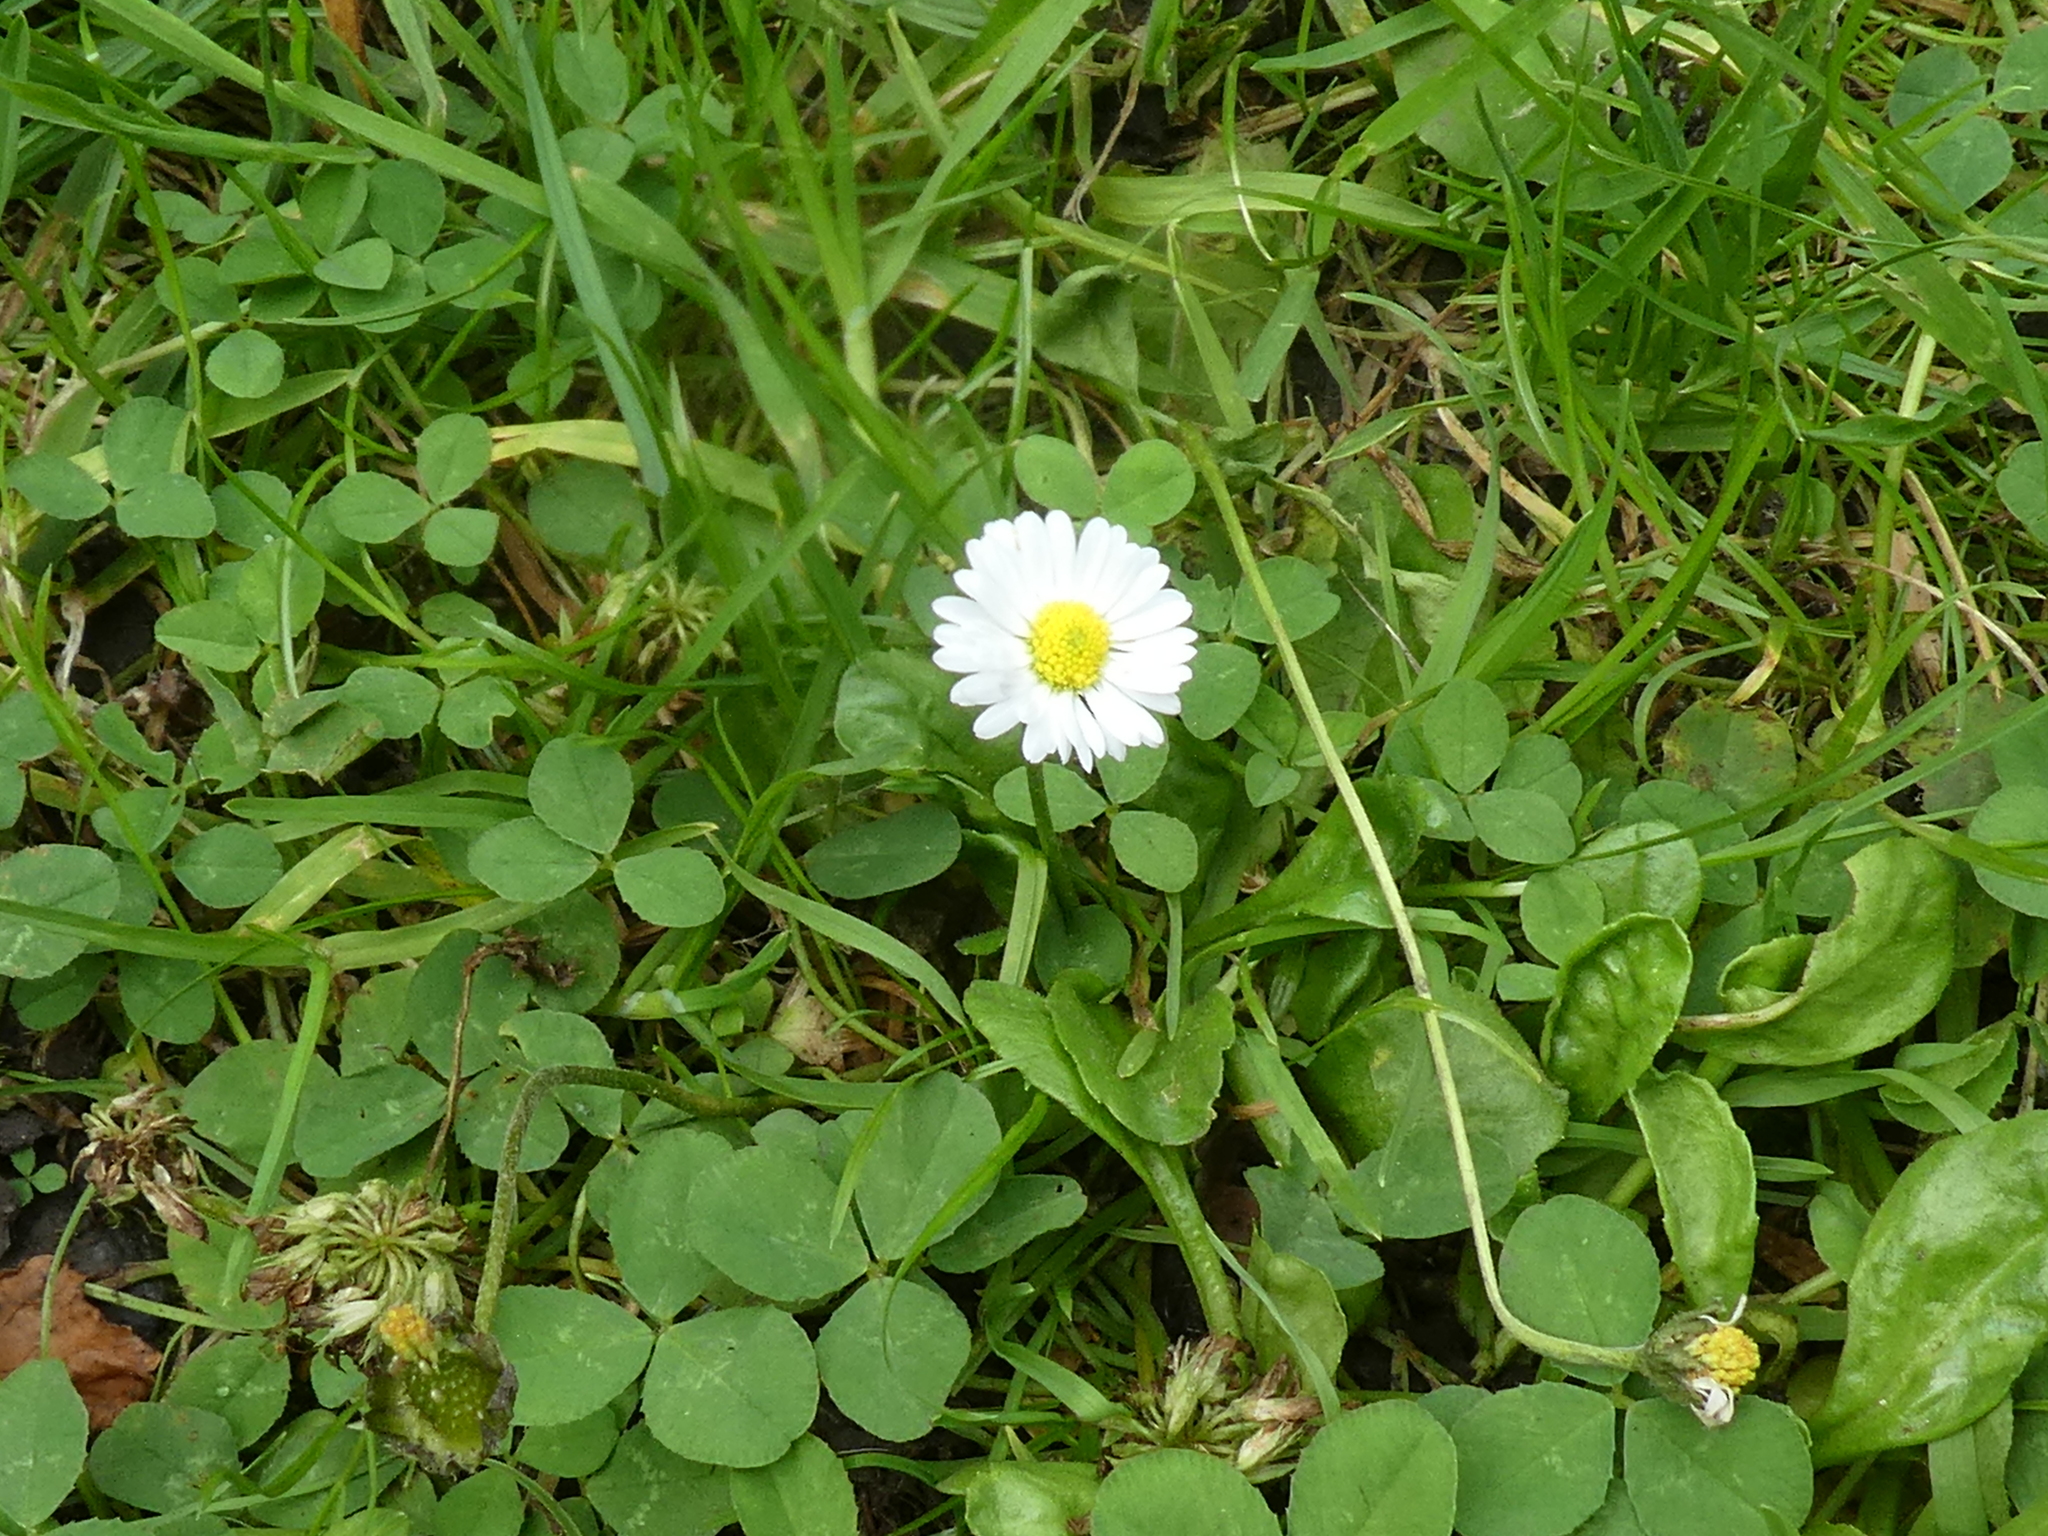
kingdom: Plantae
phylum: Tracheophyta
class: Magnoliopsida
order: Asterales
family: Asteraceae
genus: Bellis
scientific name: Bellis perennis
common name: Lawndaisy
